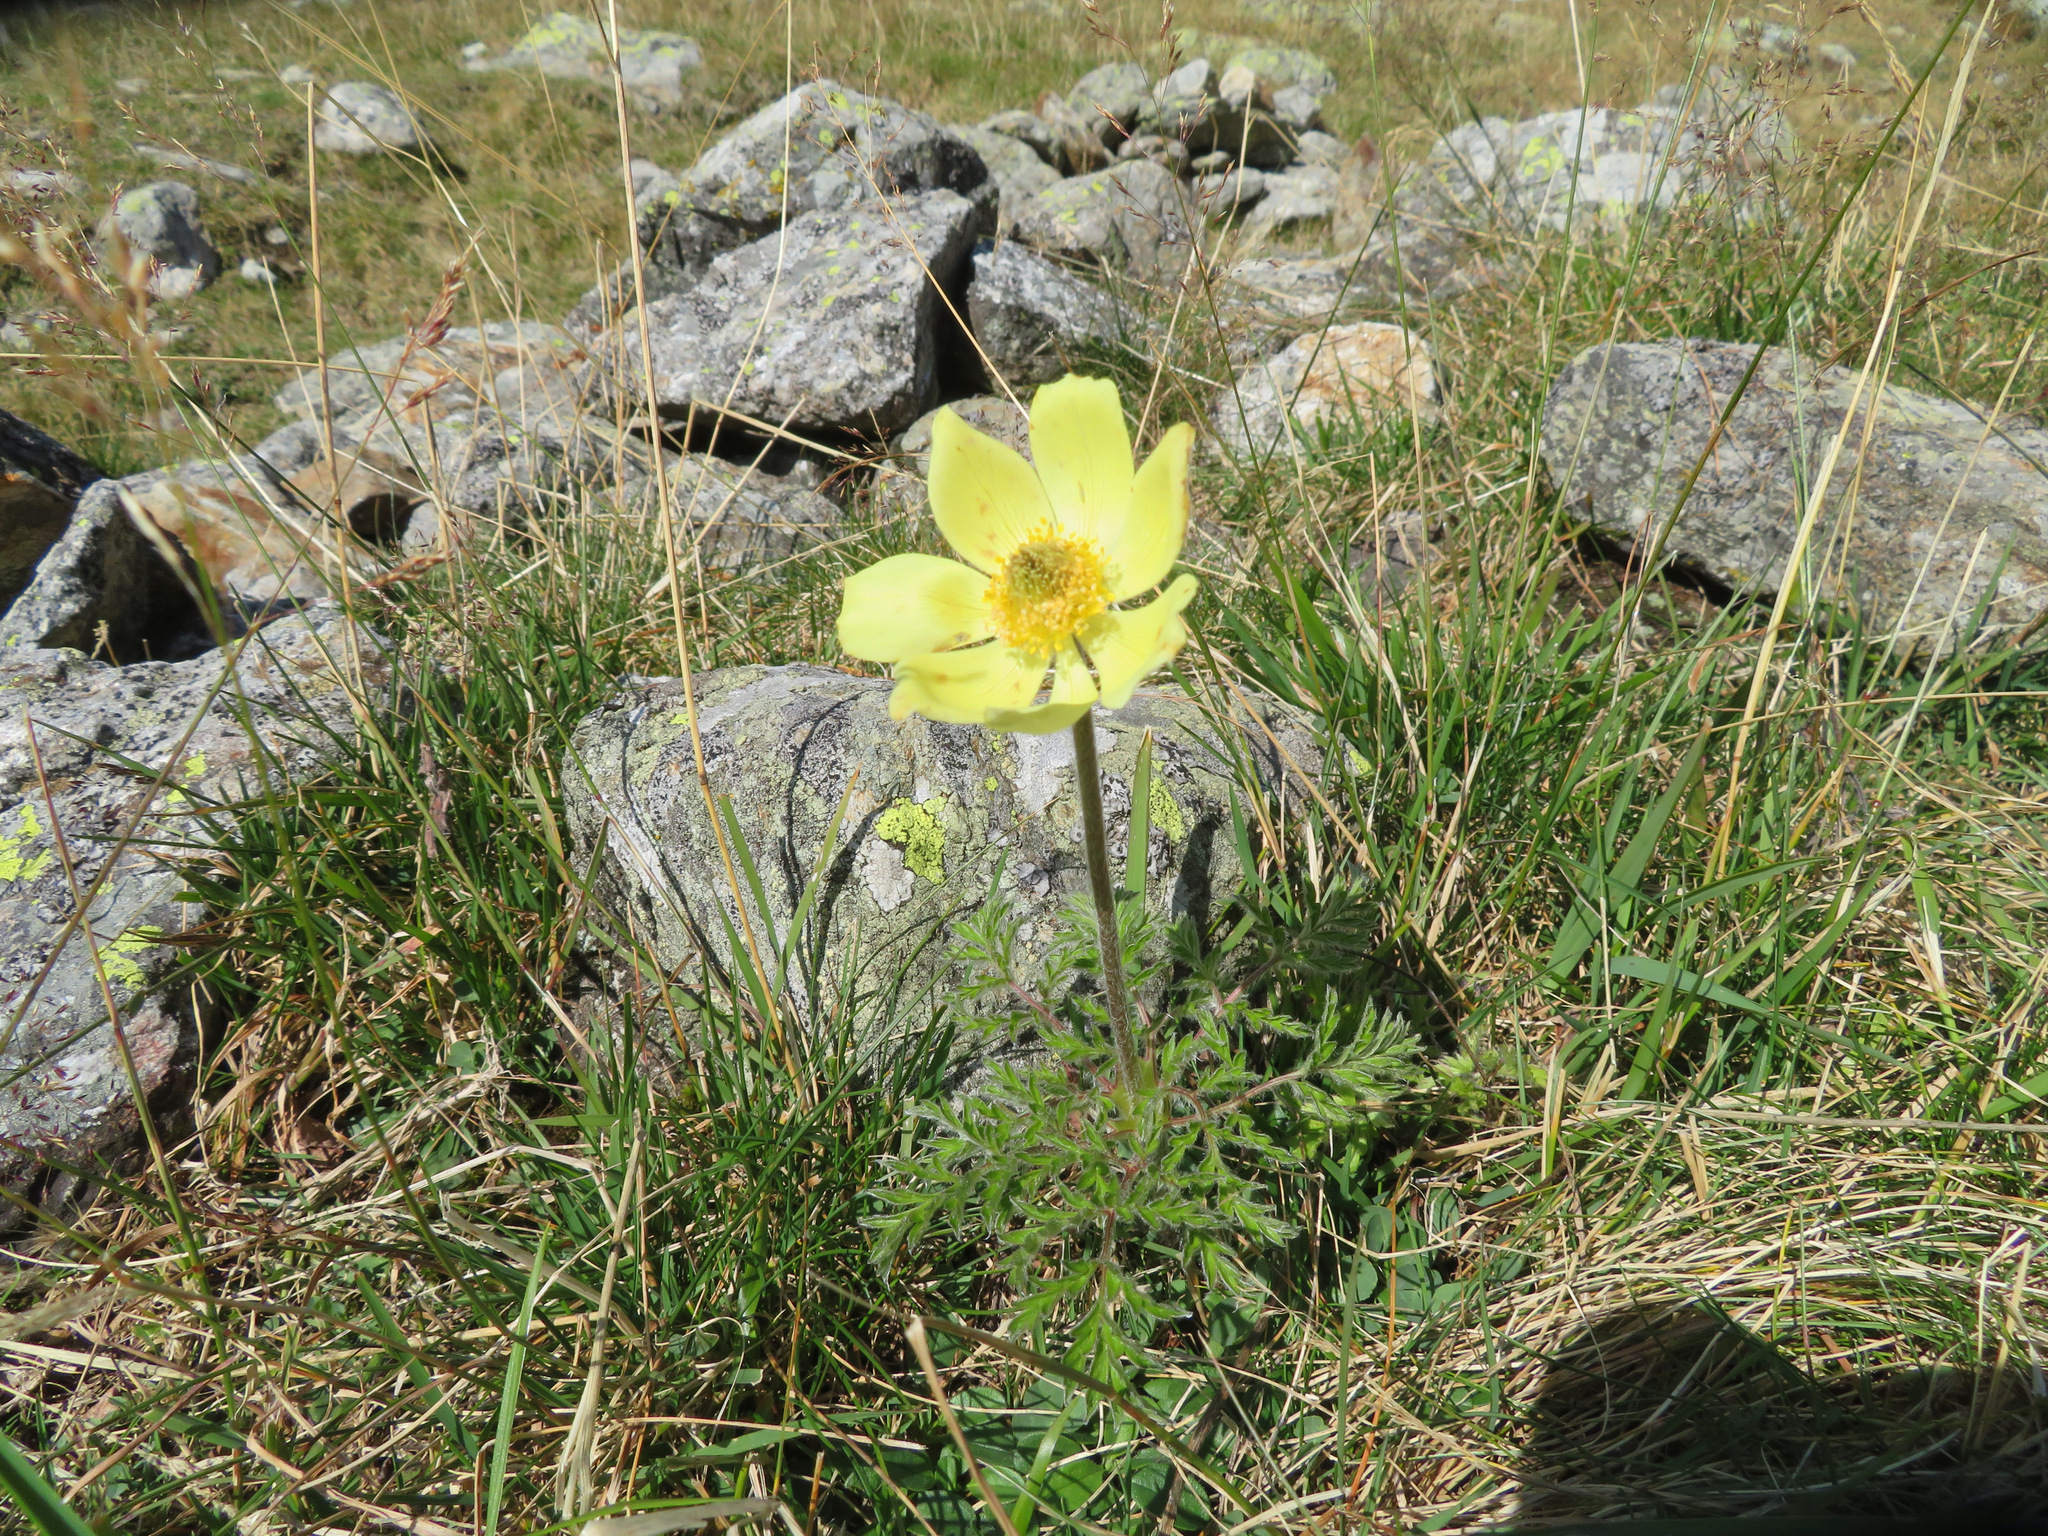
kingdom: Plantae
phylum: Tracheophyta
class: Magnoliopsida
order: Ranunculales
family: Ranunculaceae
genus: Pulsatilla
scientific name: Pulsatilla alpina
